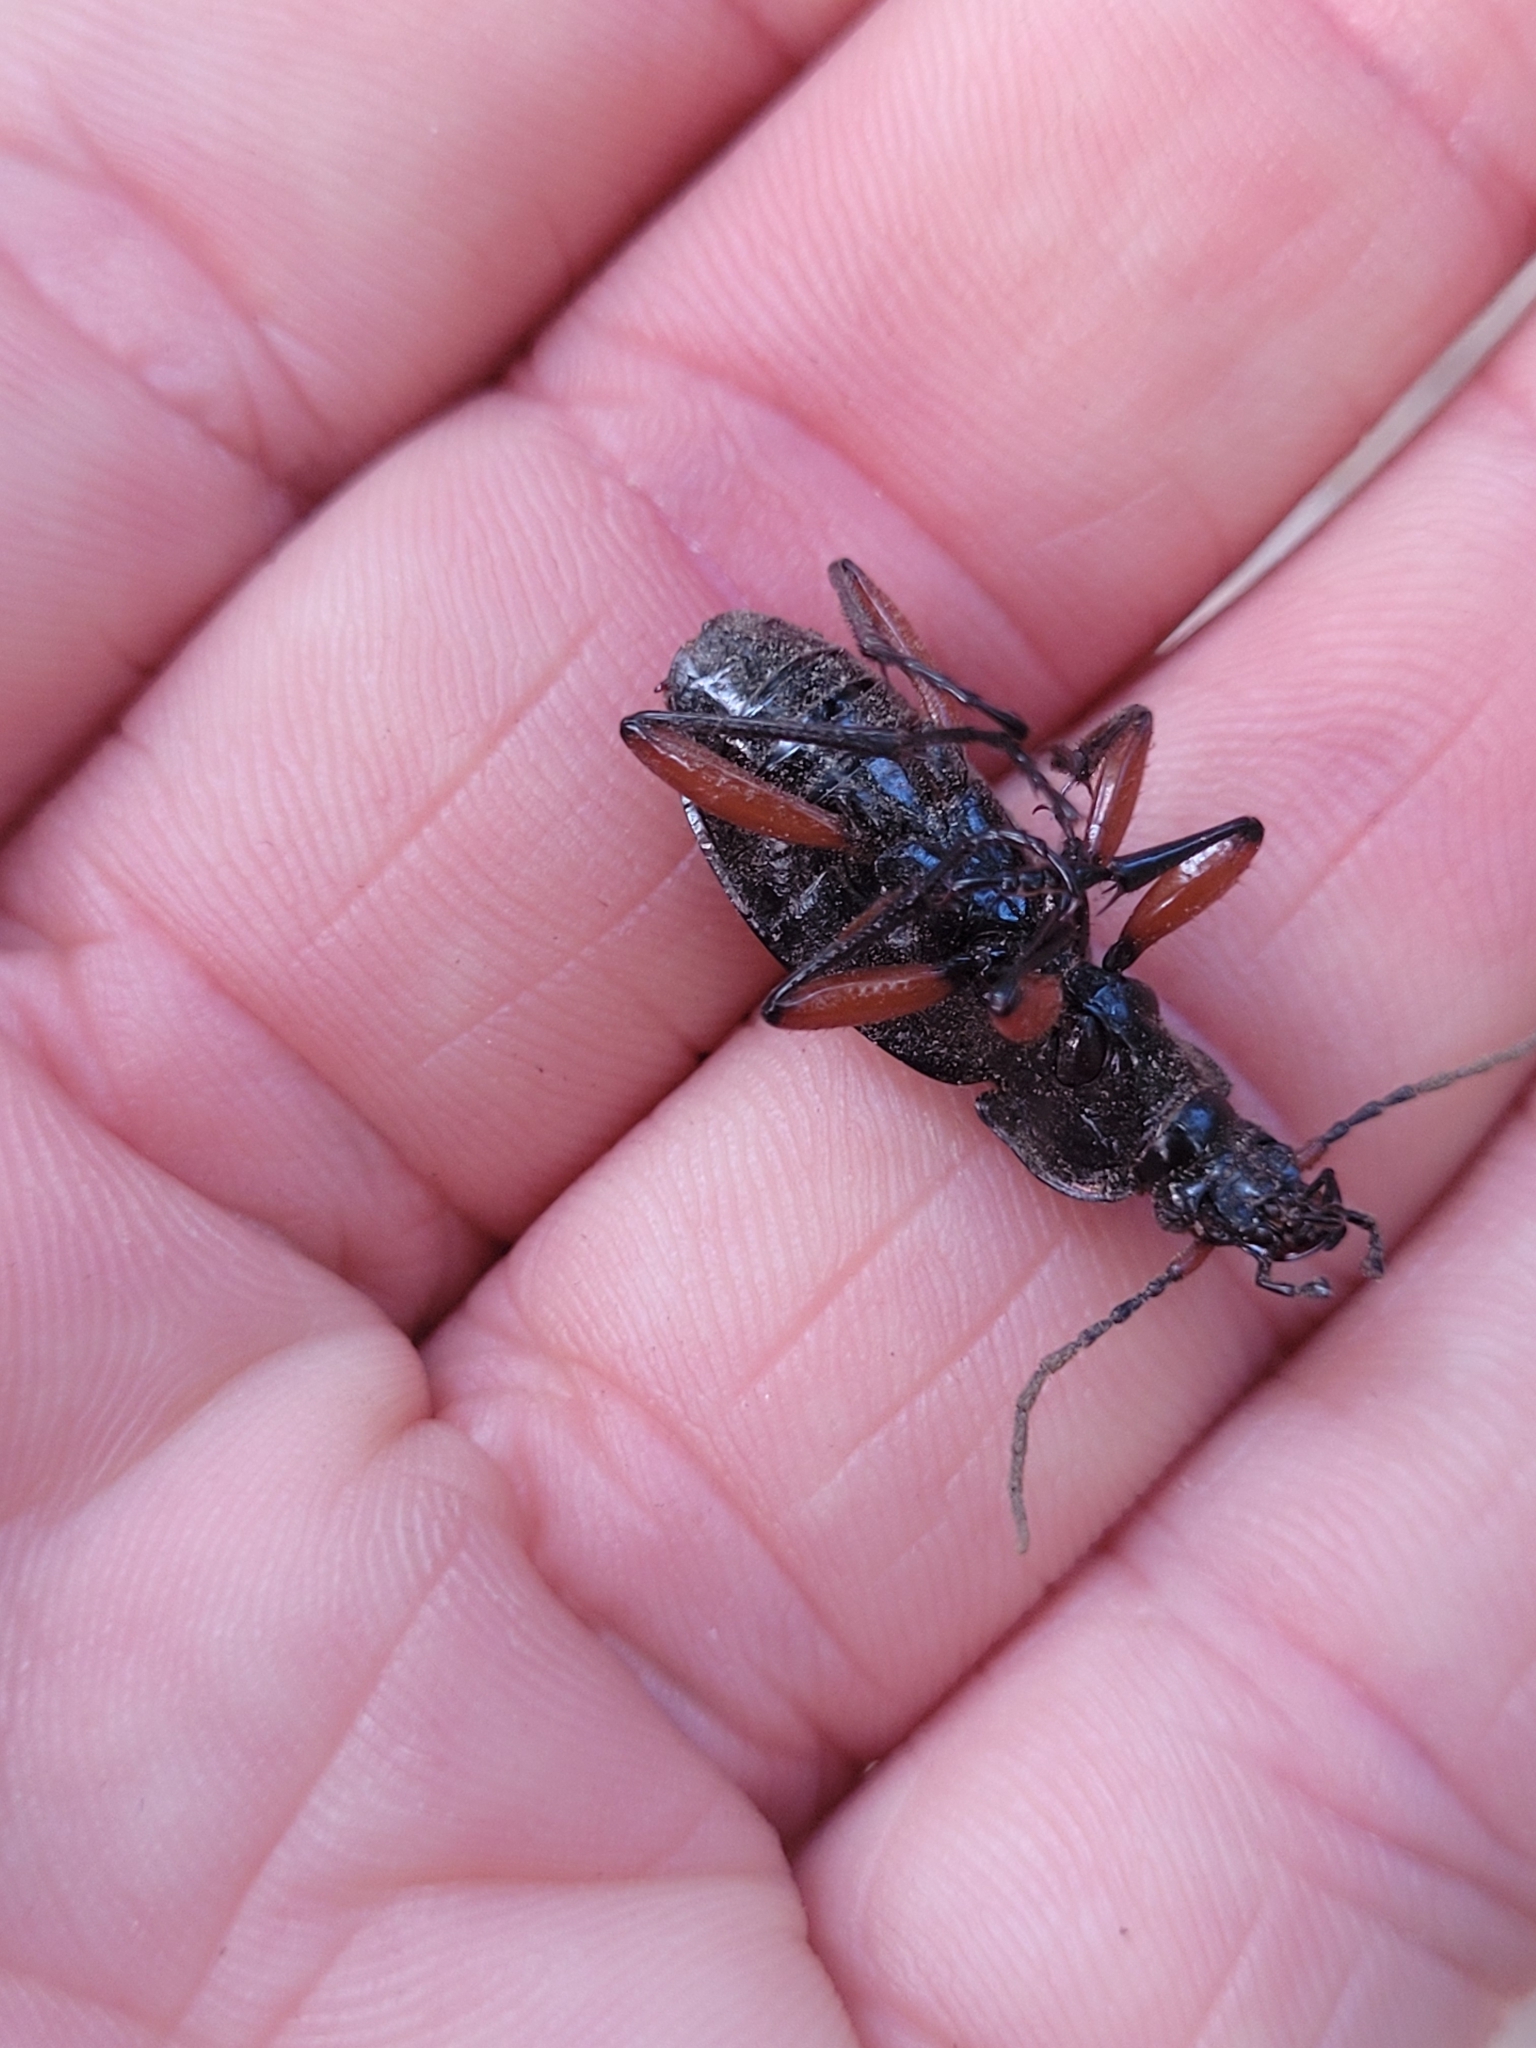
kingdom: Animalia
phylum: Arthropoda
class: Insecta
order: Coleoptera
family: Carabidae
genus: Carabus
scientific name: Carabus auronitens
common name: Carabus auronitens
